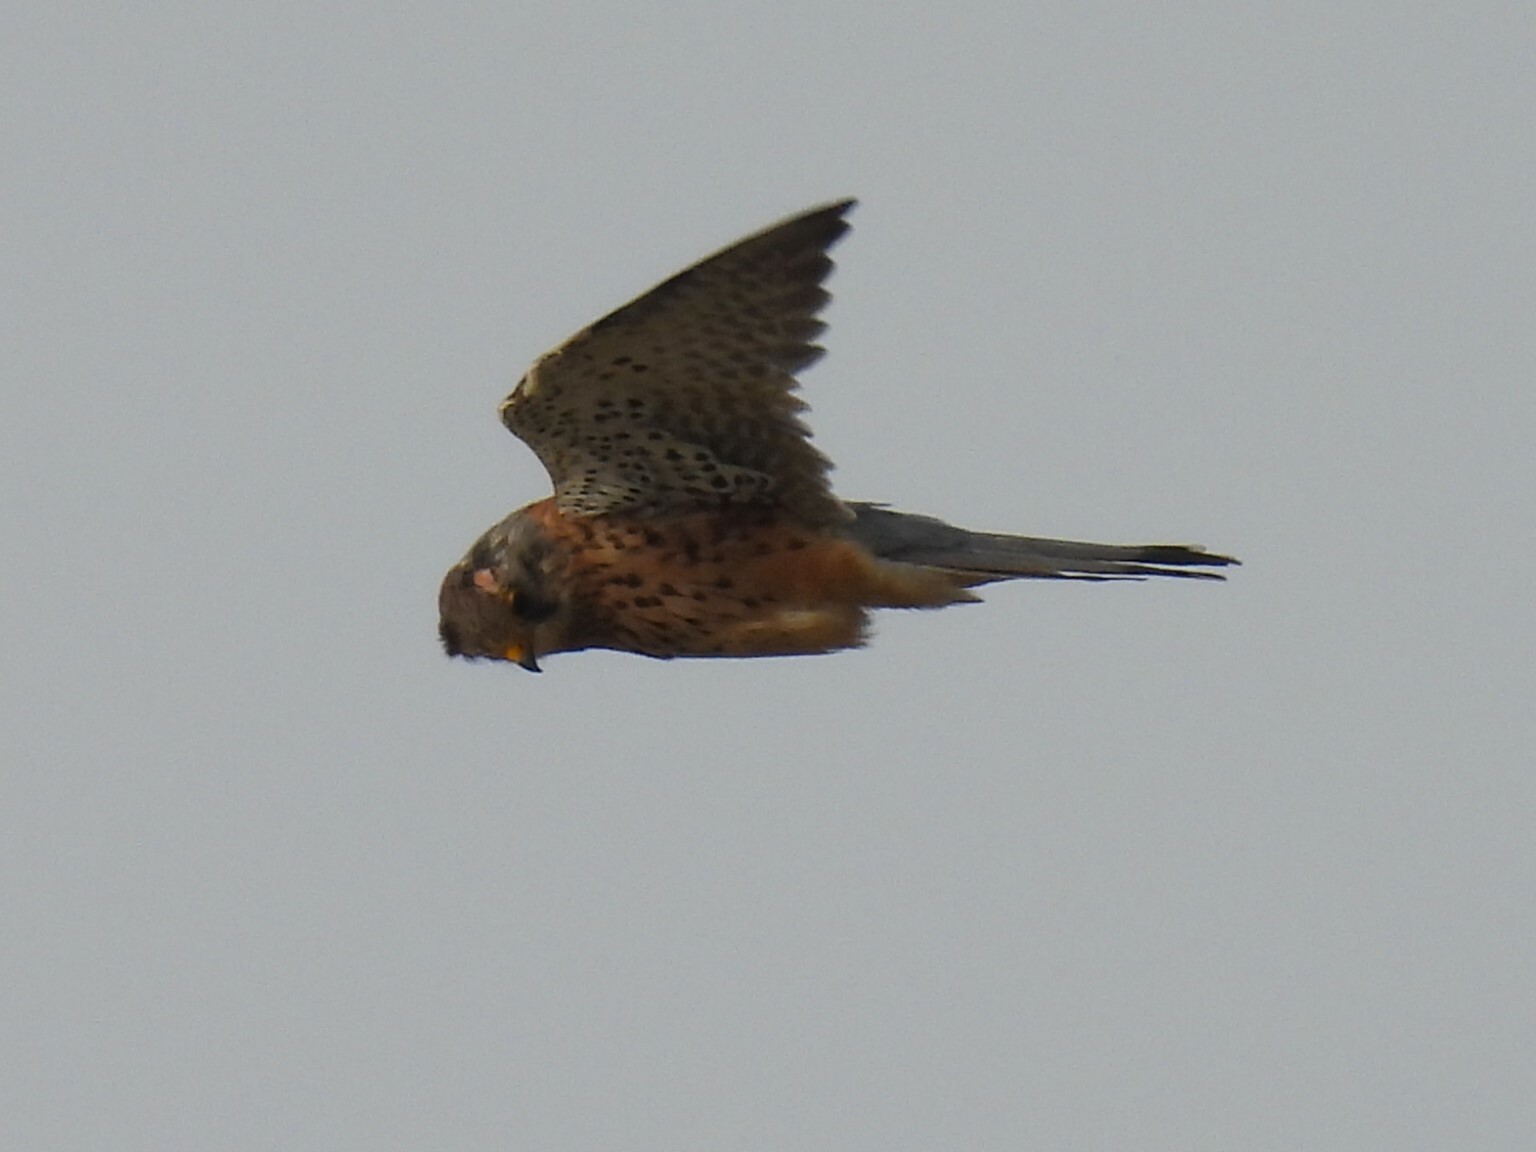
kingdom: Animalia
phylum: Chordata
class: Aves
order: Falconiformes
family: Falconidae
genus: Falco
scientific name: Falco tinnunculus
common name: Common kestrel
